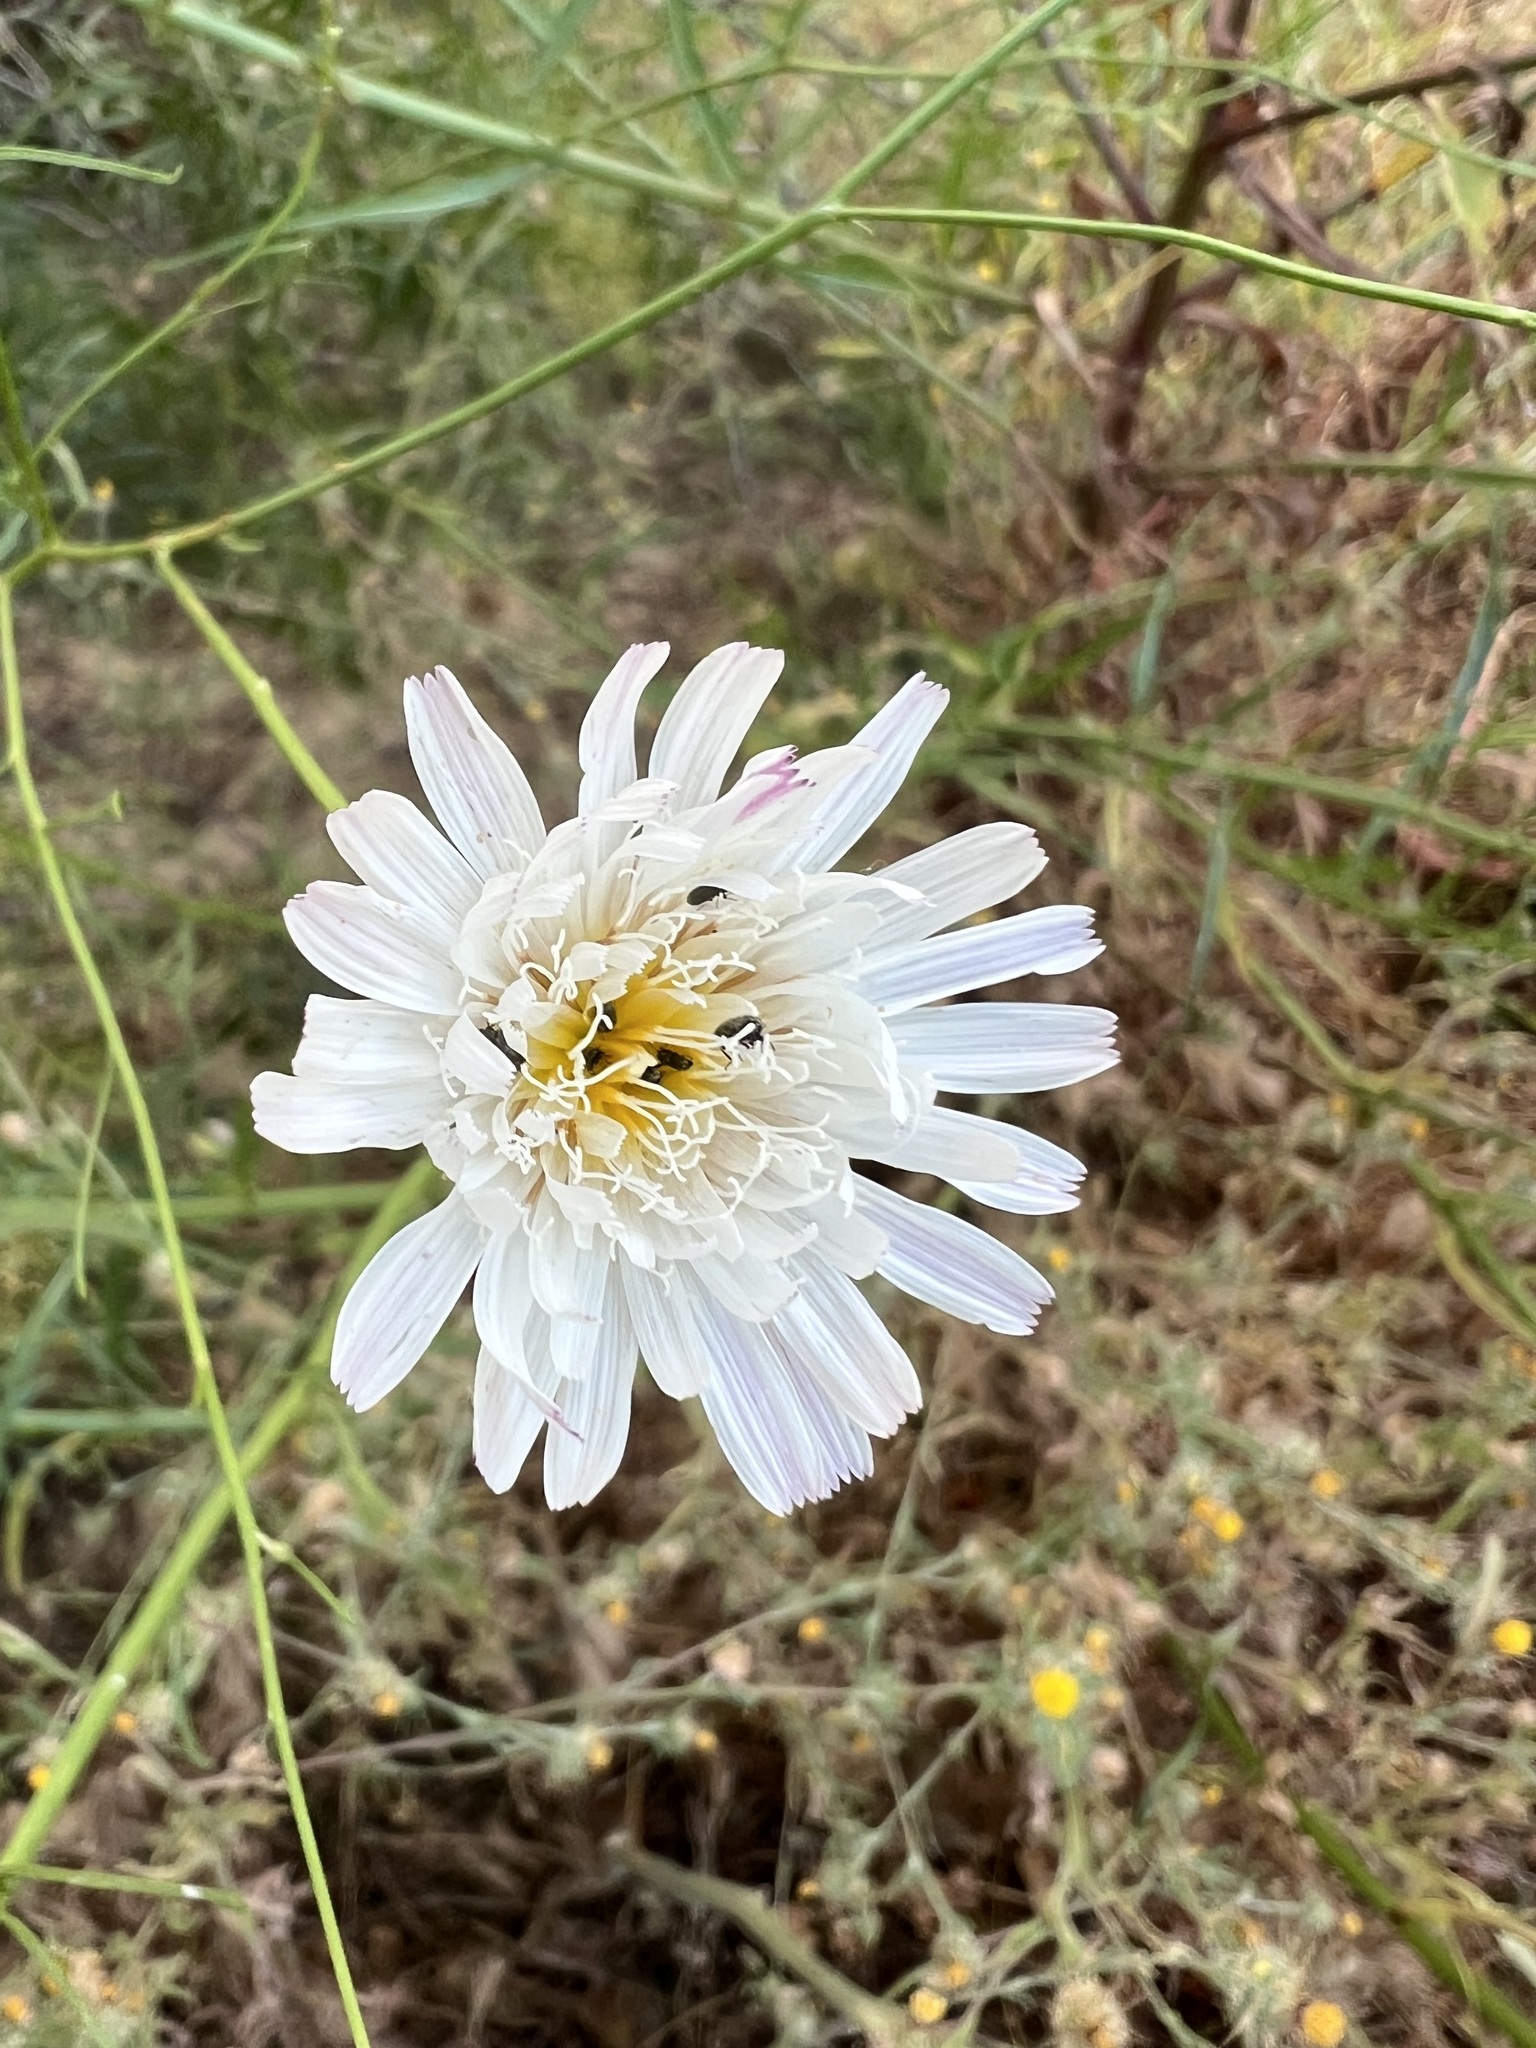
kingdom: Plantae
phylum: Tracheophyta
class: Magnoliopsida
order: Asterales
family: Asteraceae
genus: Malacothrix
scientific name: Malacothrix saxatilis
